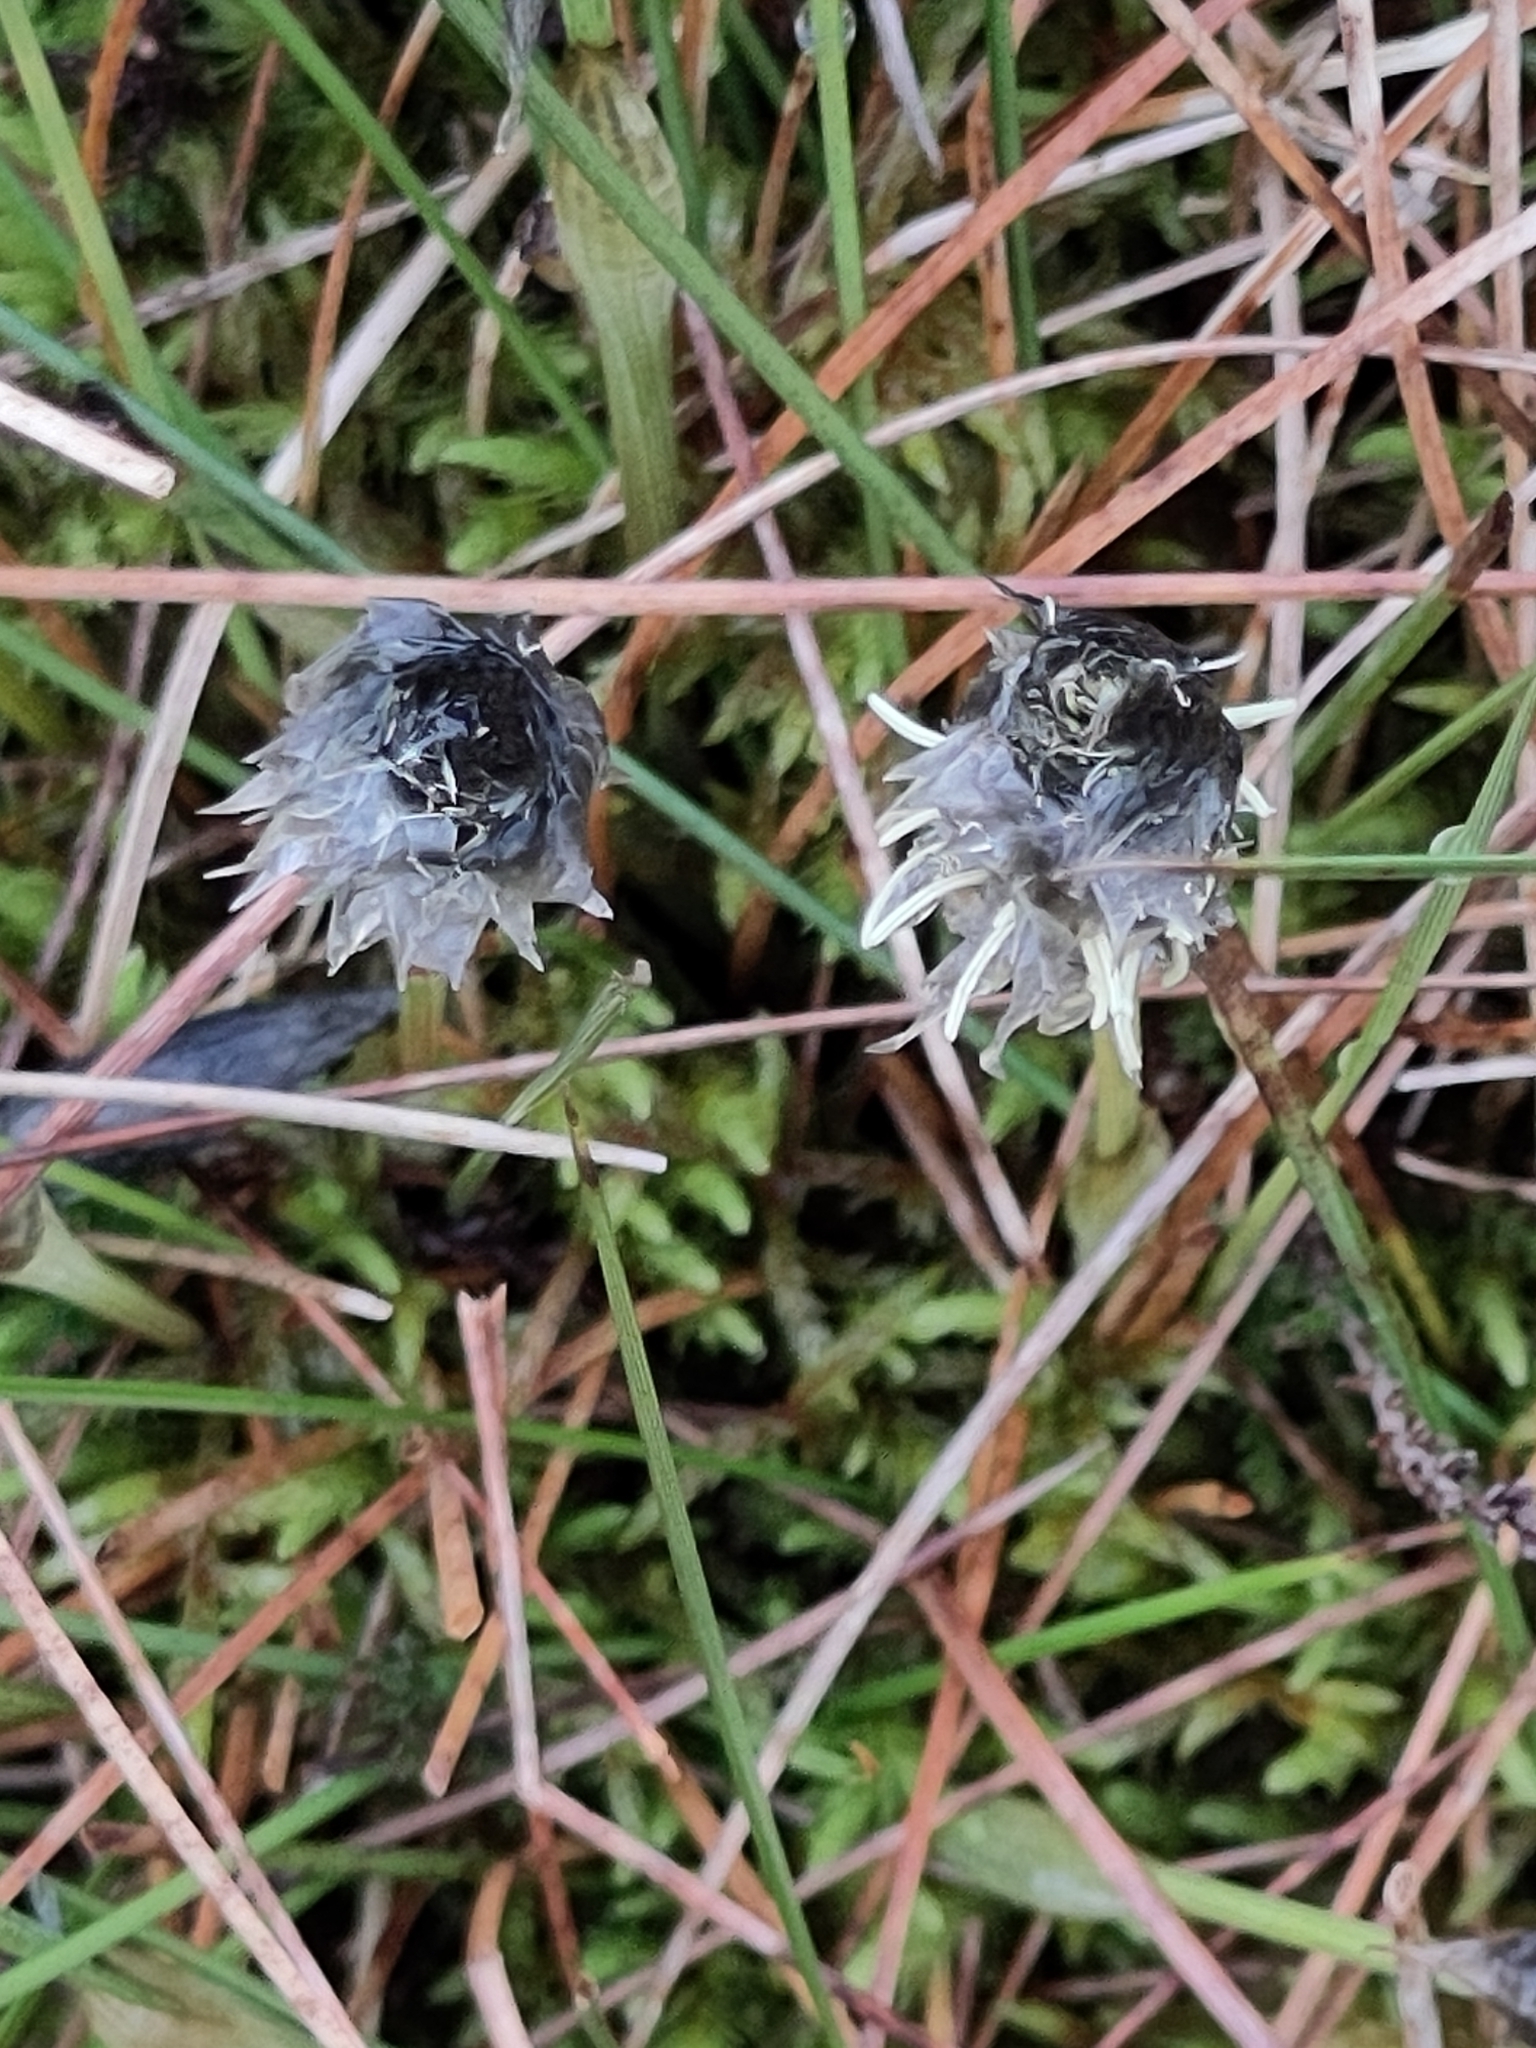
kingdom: Plantae
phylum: Tracheophyta
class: Liliopsida
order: Poales
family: Cyperaceae
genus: Eriophorum
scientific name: Eriophorum vaginatum
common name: Hare's-tail cottongrass
